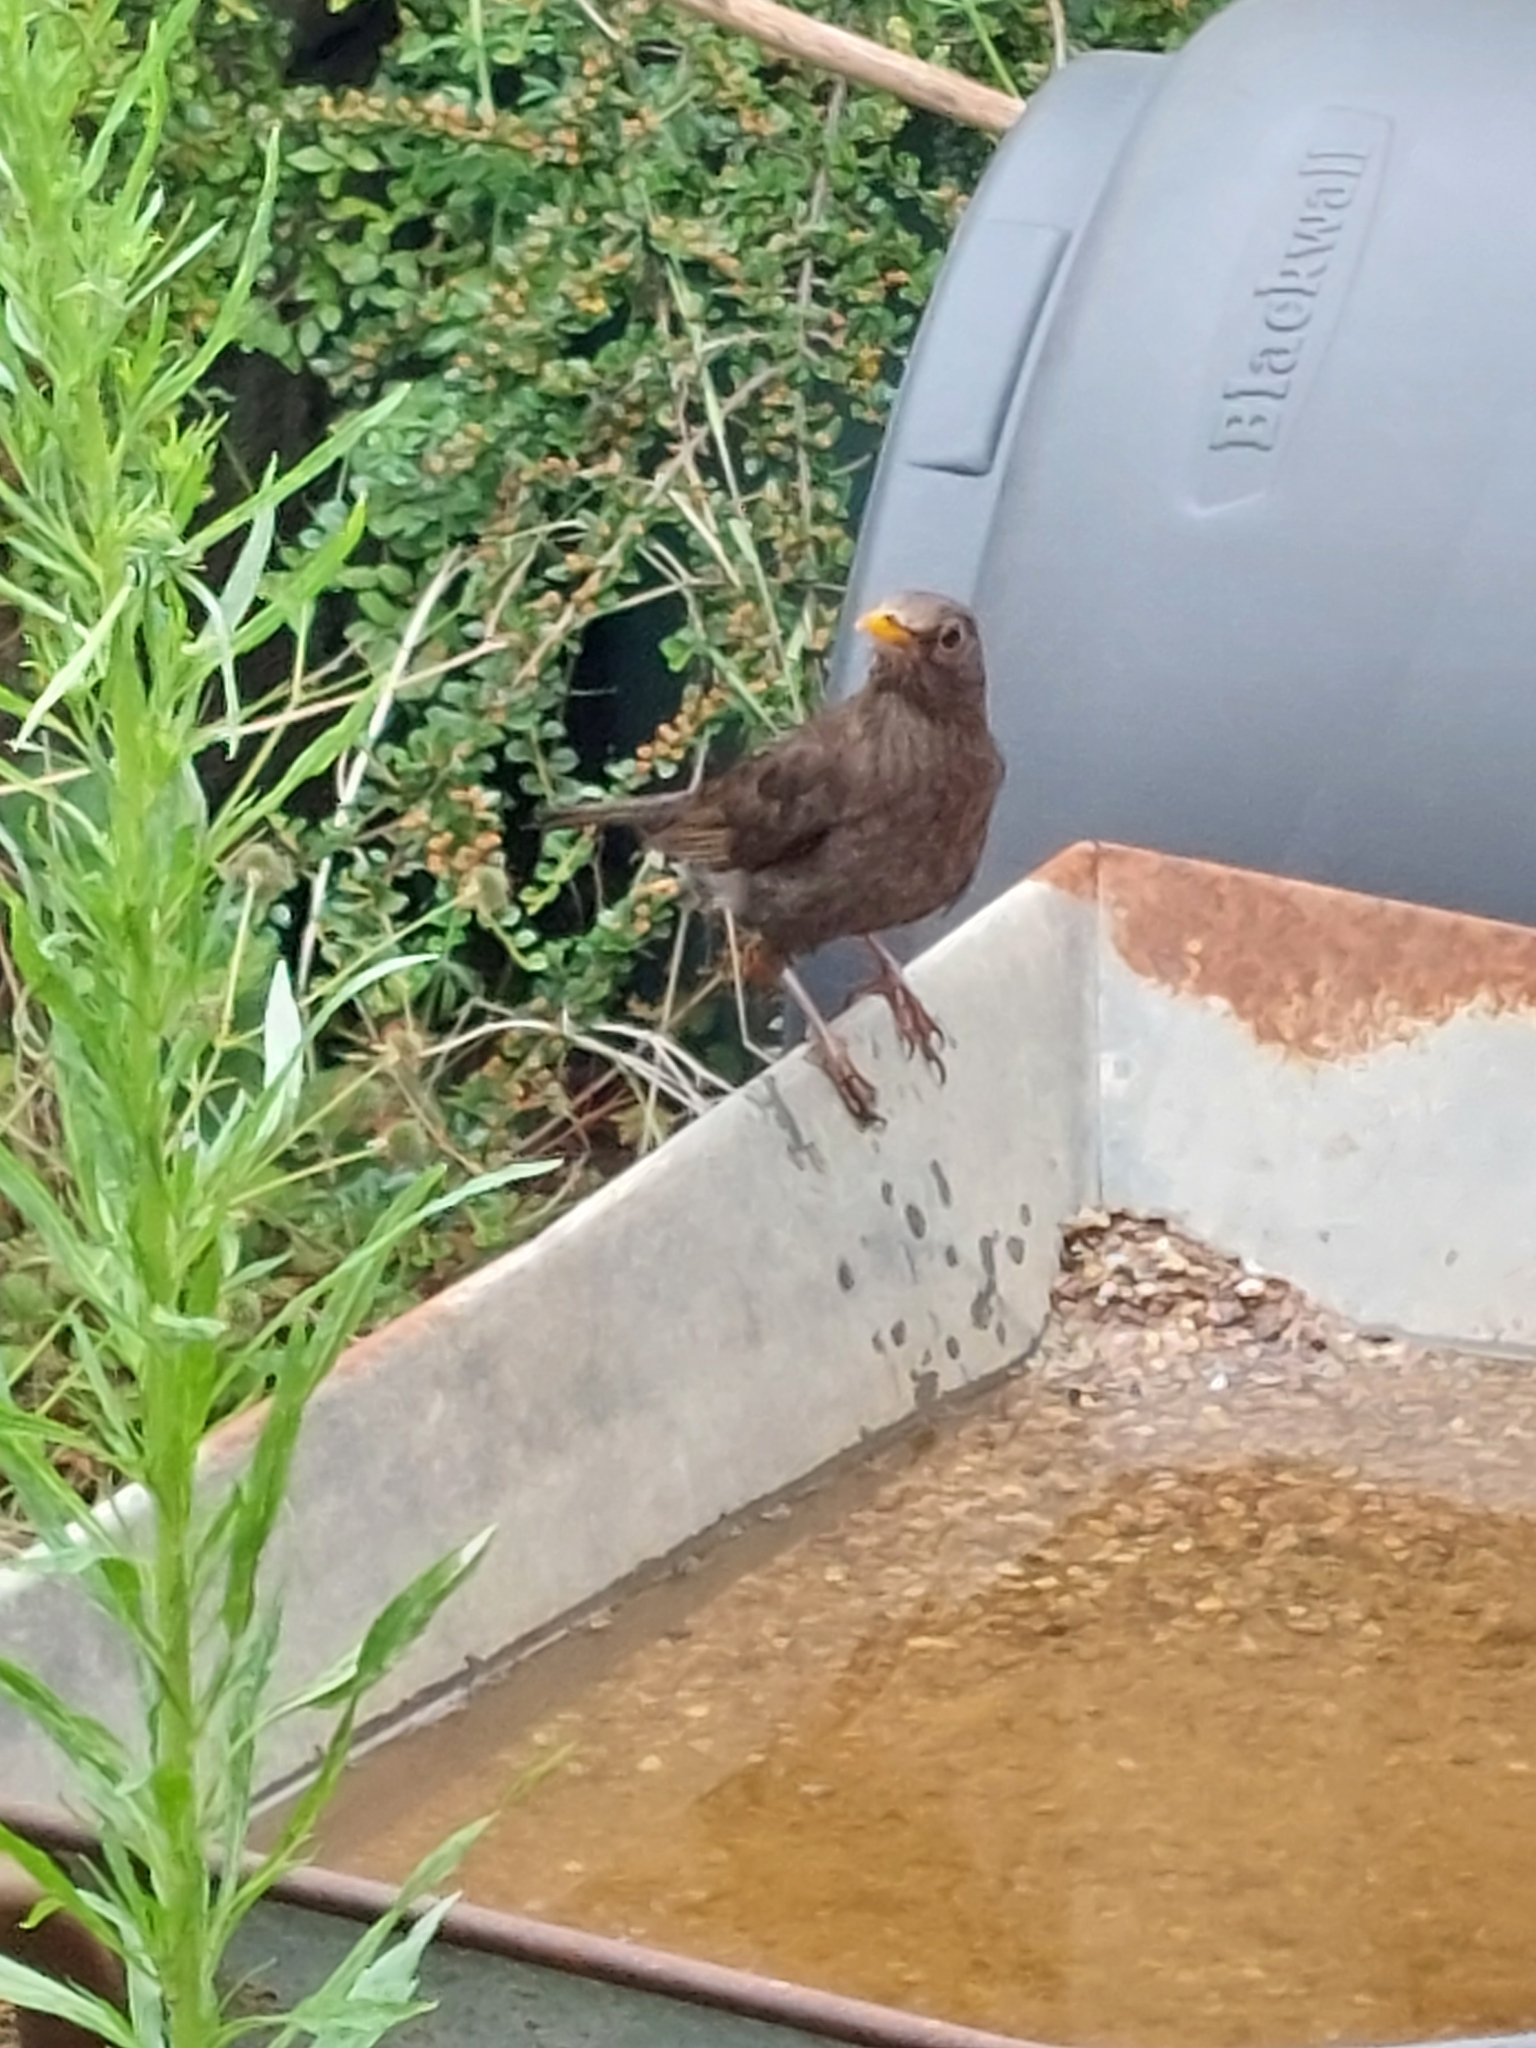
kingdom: Animalia
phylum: Chordata
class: Aves
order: Passeriformes
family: Turdidae
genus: Turdus
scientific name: Turdus merula
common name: Common blackbird
